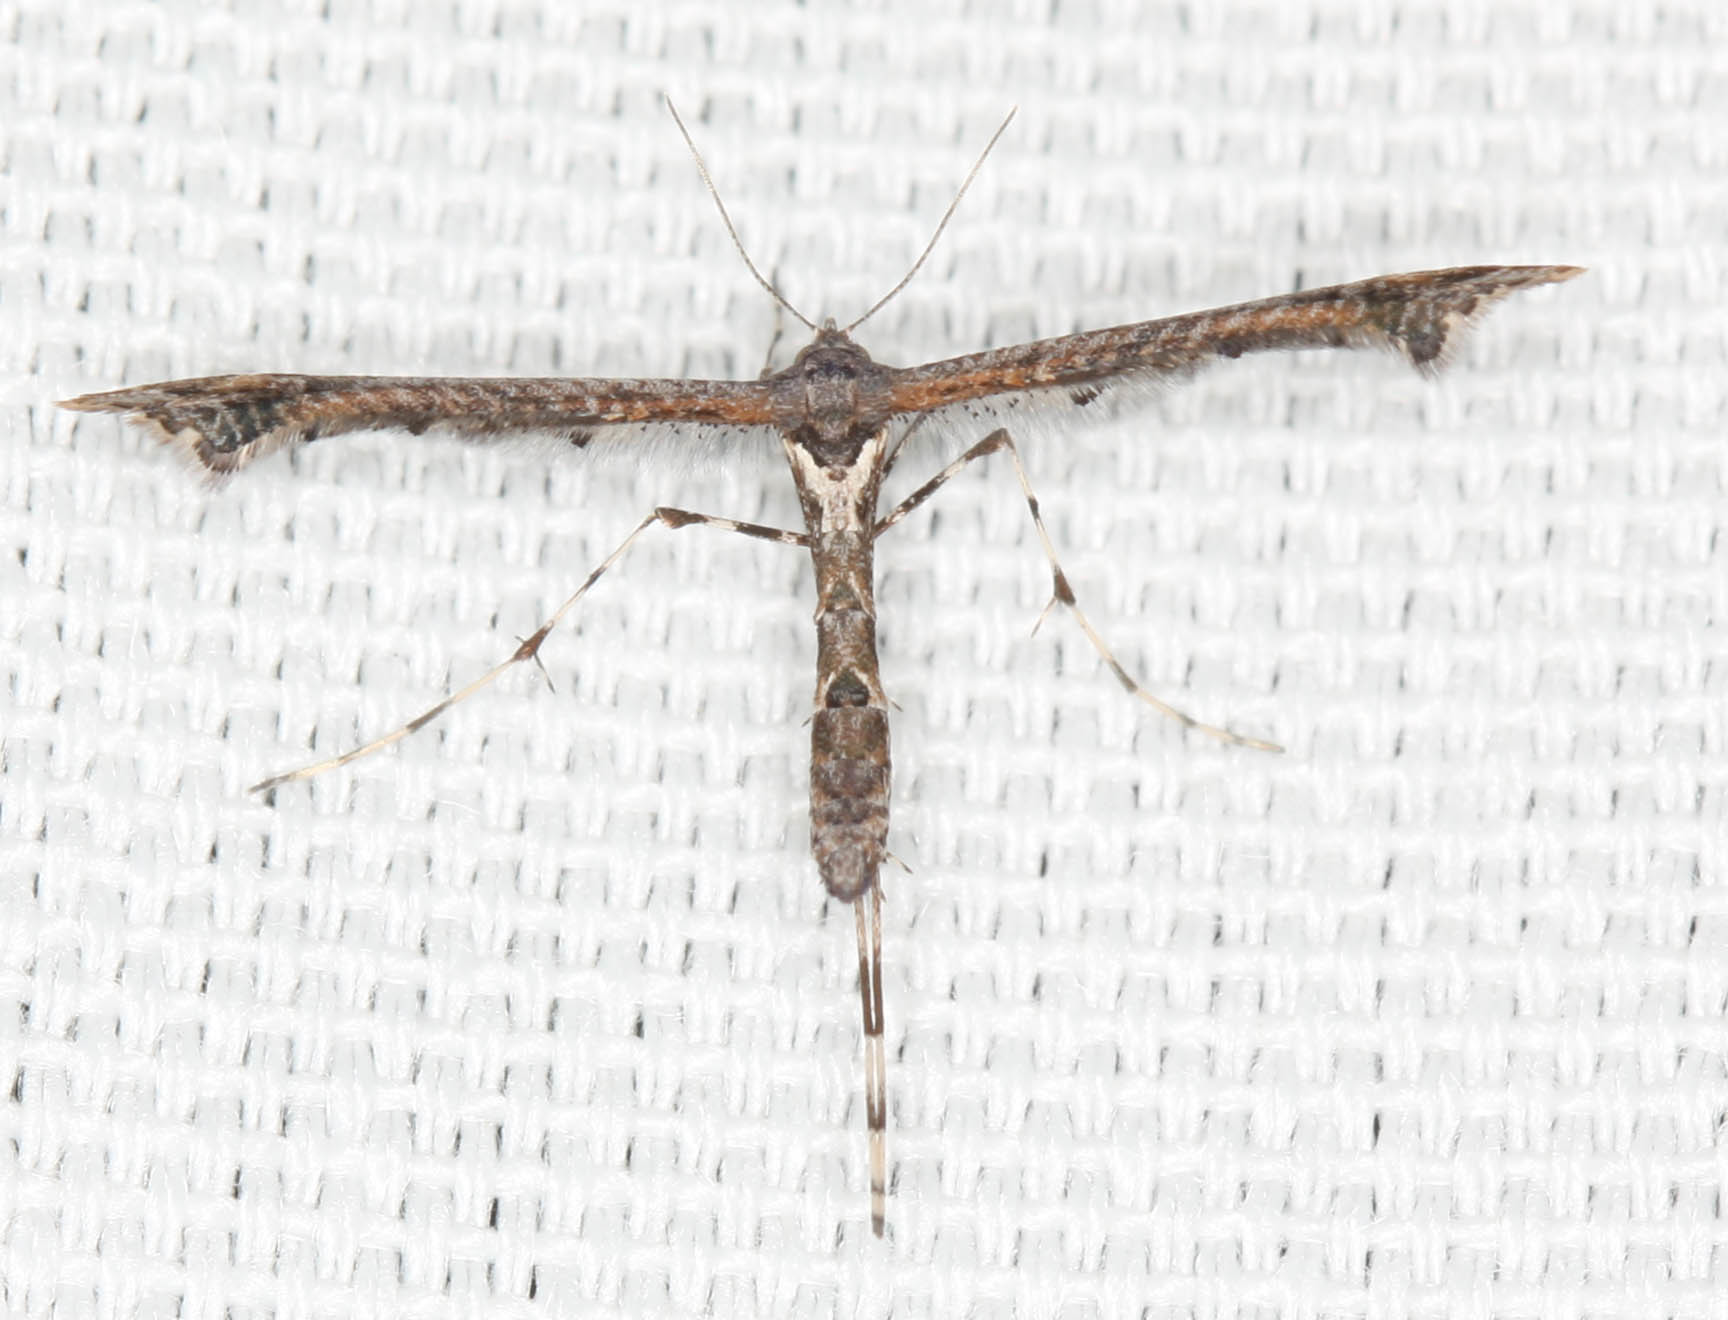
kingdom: Animalia
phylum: Arthropoda
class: Insecta
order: Lepidoptera
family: Pterophoridae
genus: Anstenoptilia
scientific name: Anstenoptilia marmarodactyla
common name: Moth
